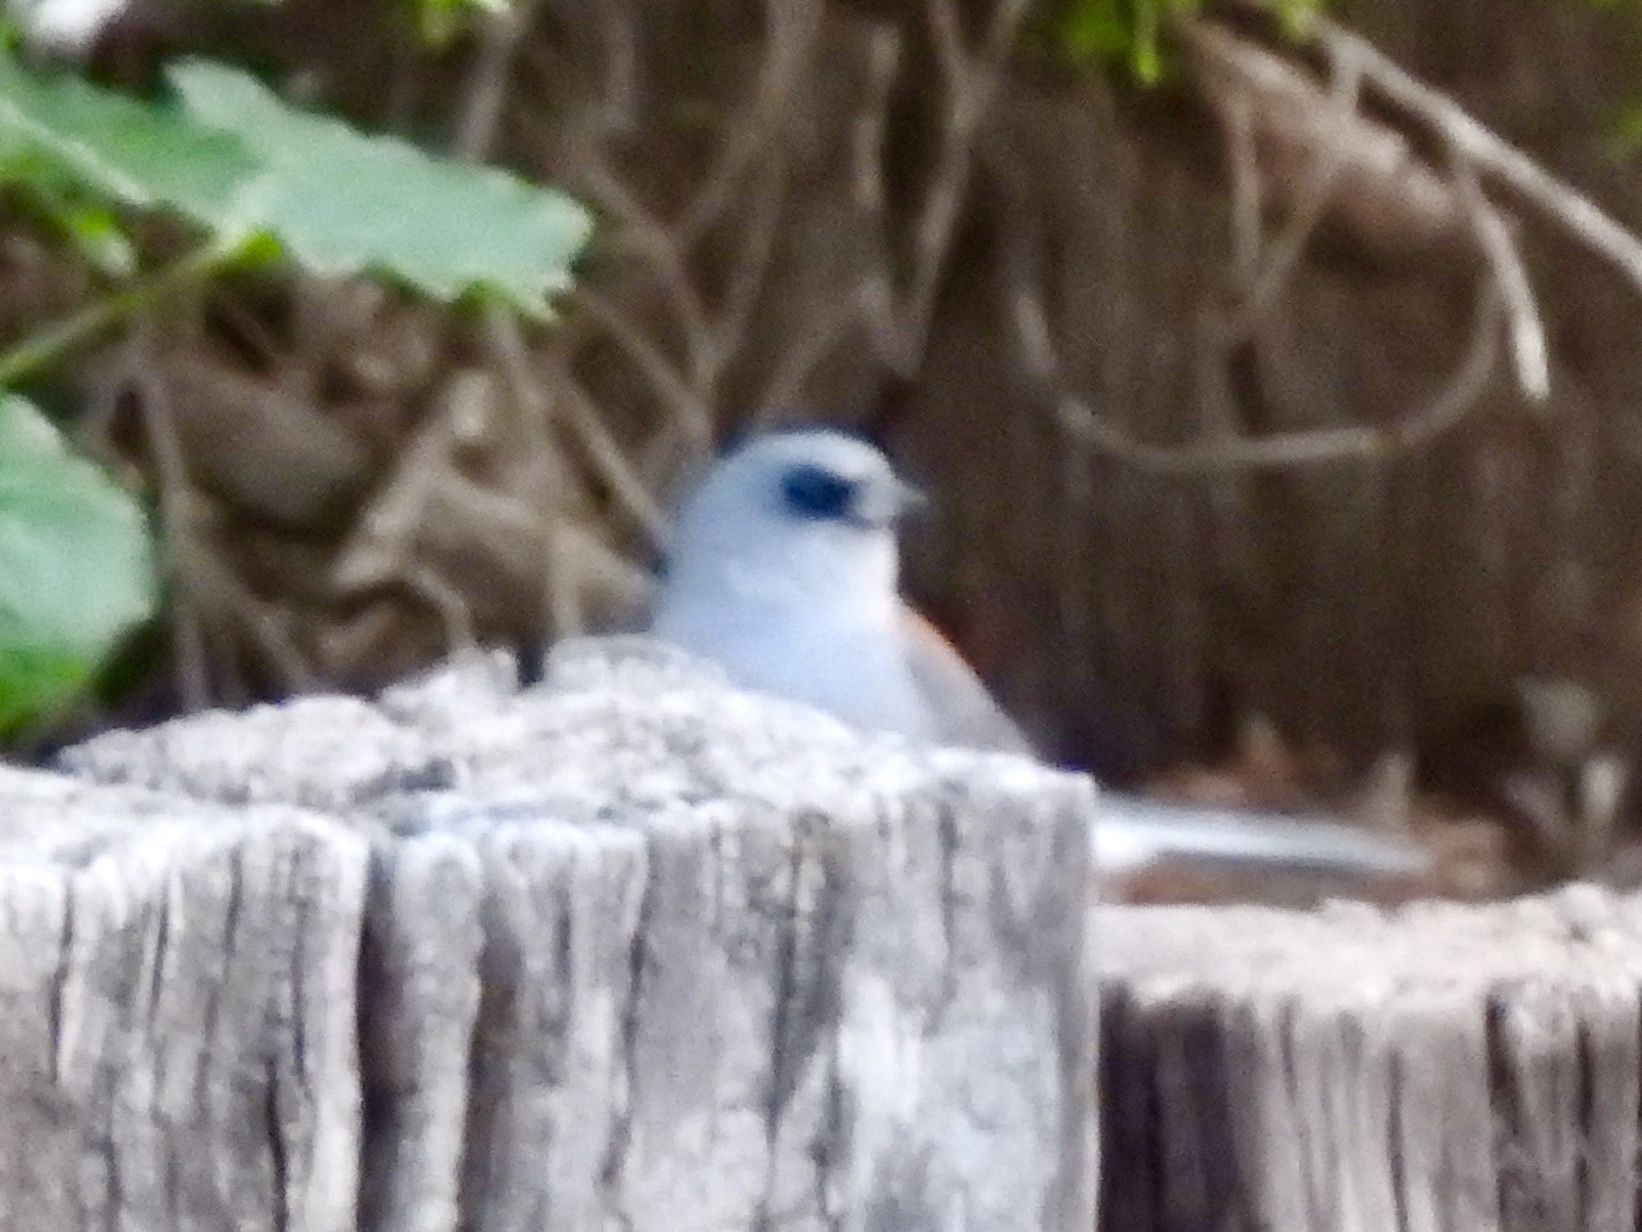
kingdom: Animalia
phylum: Chordata
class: Aves
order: Passeriformes
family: Passerellidae
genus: Junco
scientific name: Junco hyemalis
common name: Dark-eyed junco
